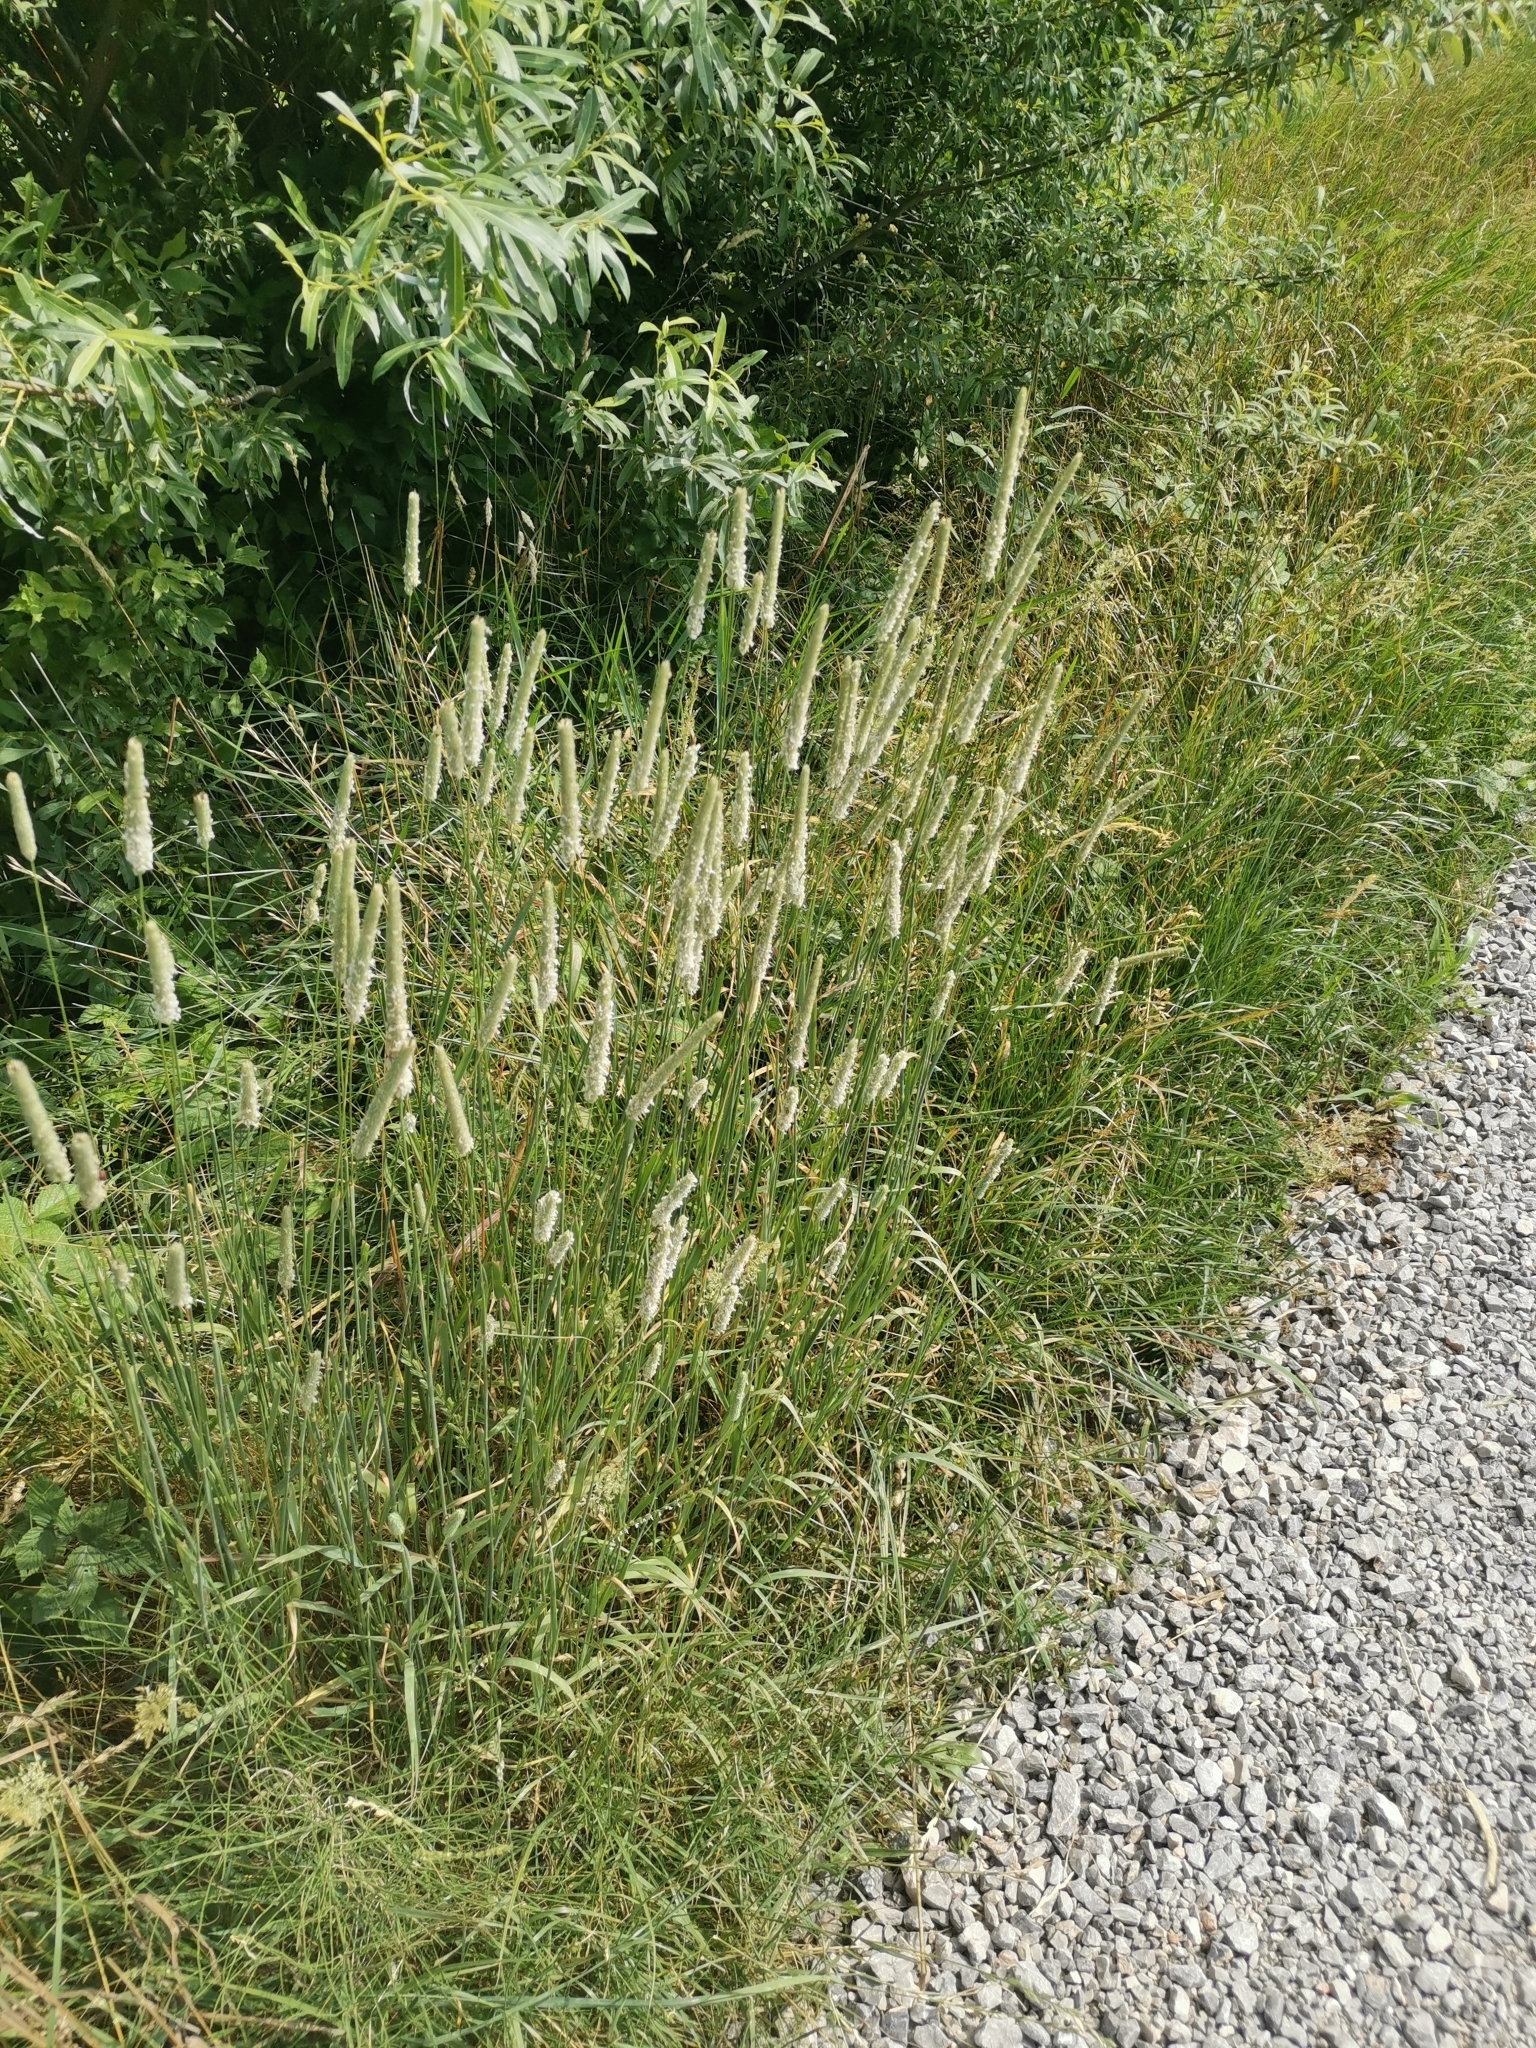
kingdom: Plantae
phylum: Tracheophyta
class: Liliopsida
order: Poales
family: Poaceae
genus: Phleum
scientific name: Phleum pratense
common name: Timothy grass
